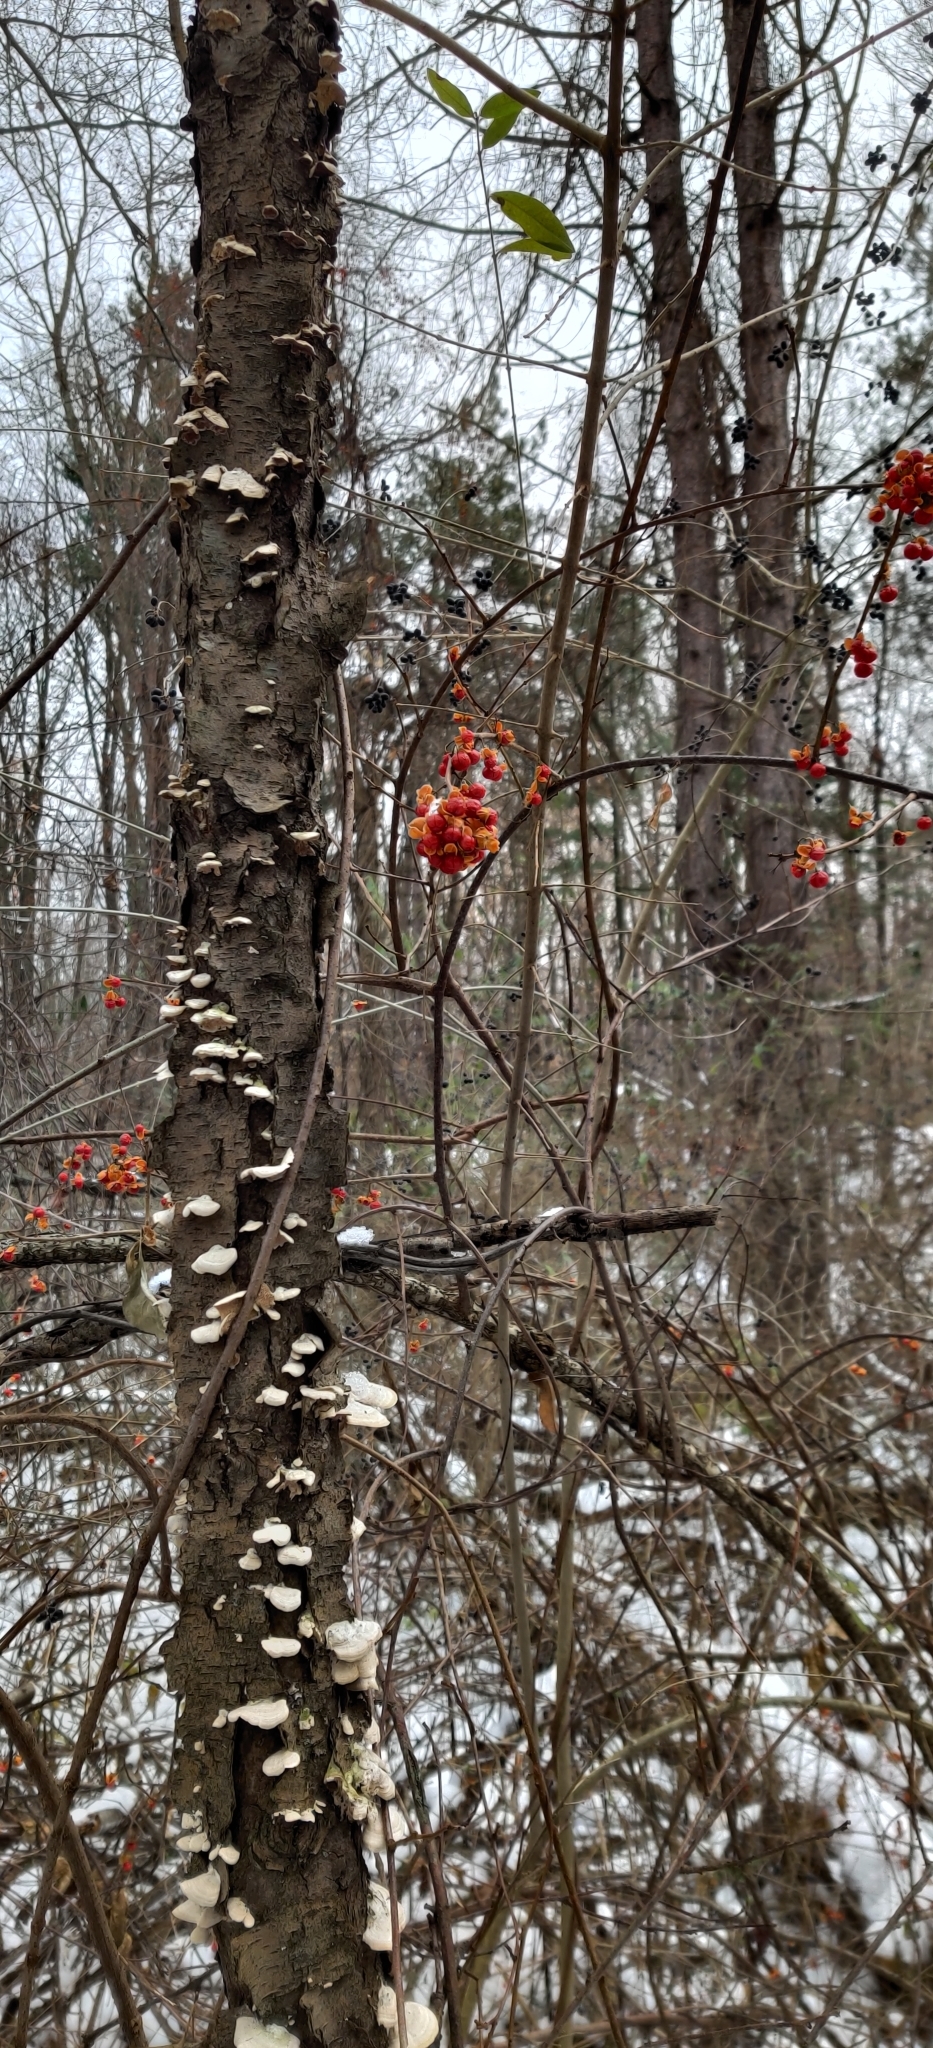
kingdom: Plantae
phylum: Tracheophyta
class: Magnoliopsida
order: Celastrales
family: Celastraceae
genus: Celastrus
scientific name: Celastrus orbiculatus
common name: Oriental bittersweet
